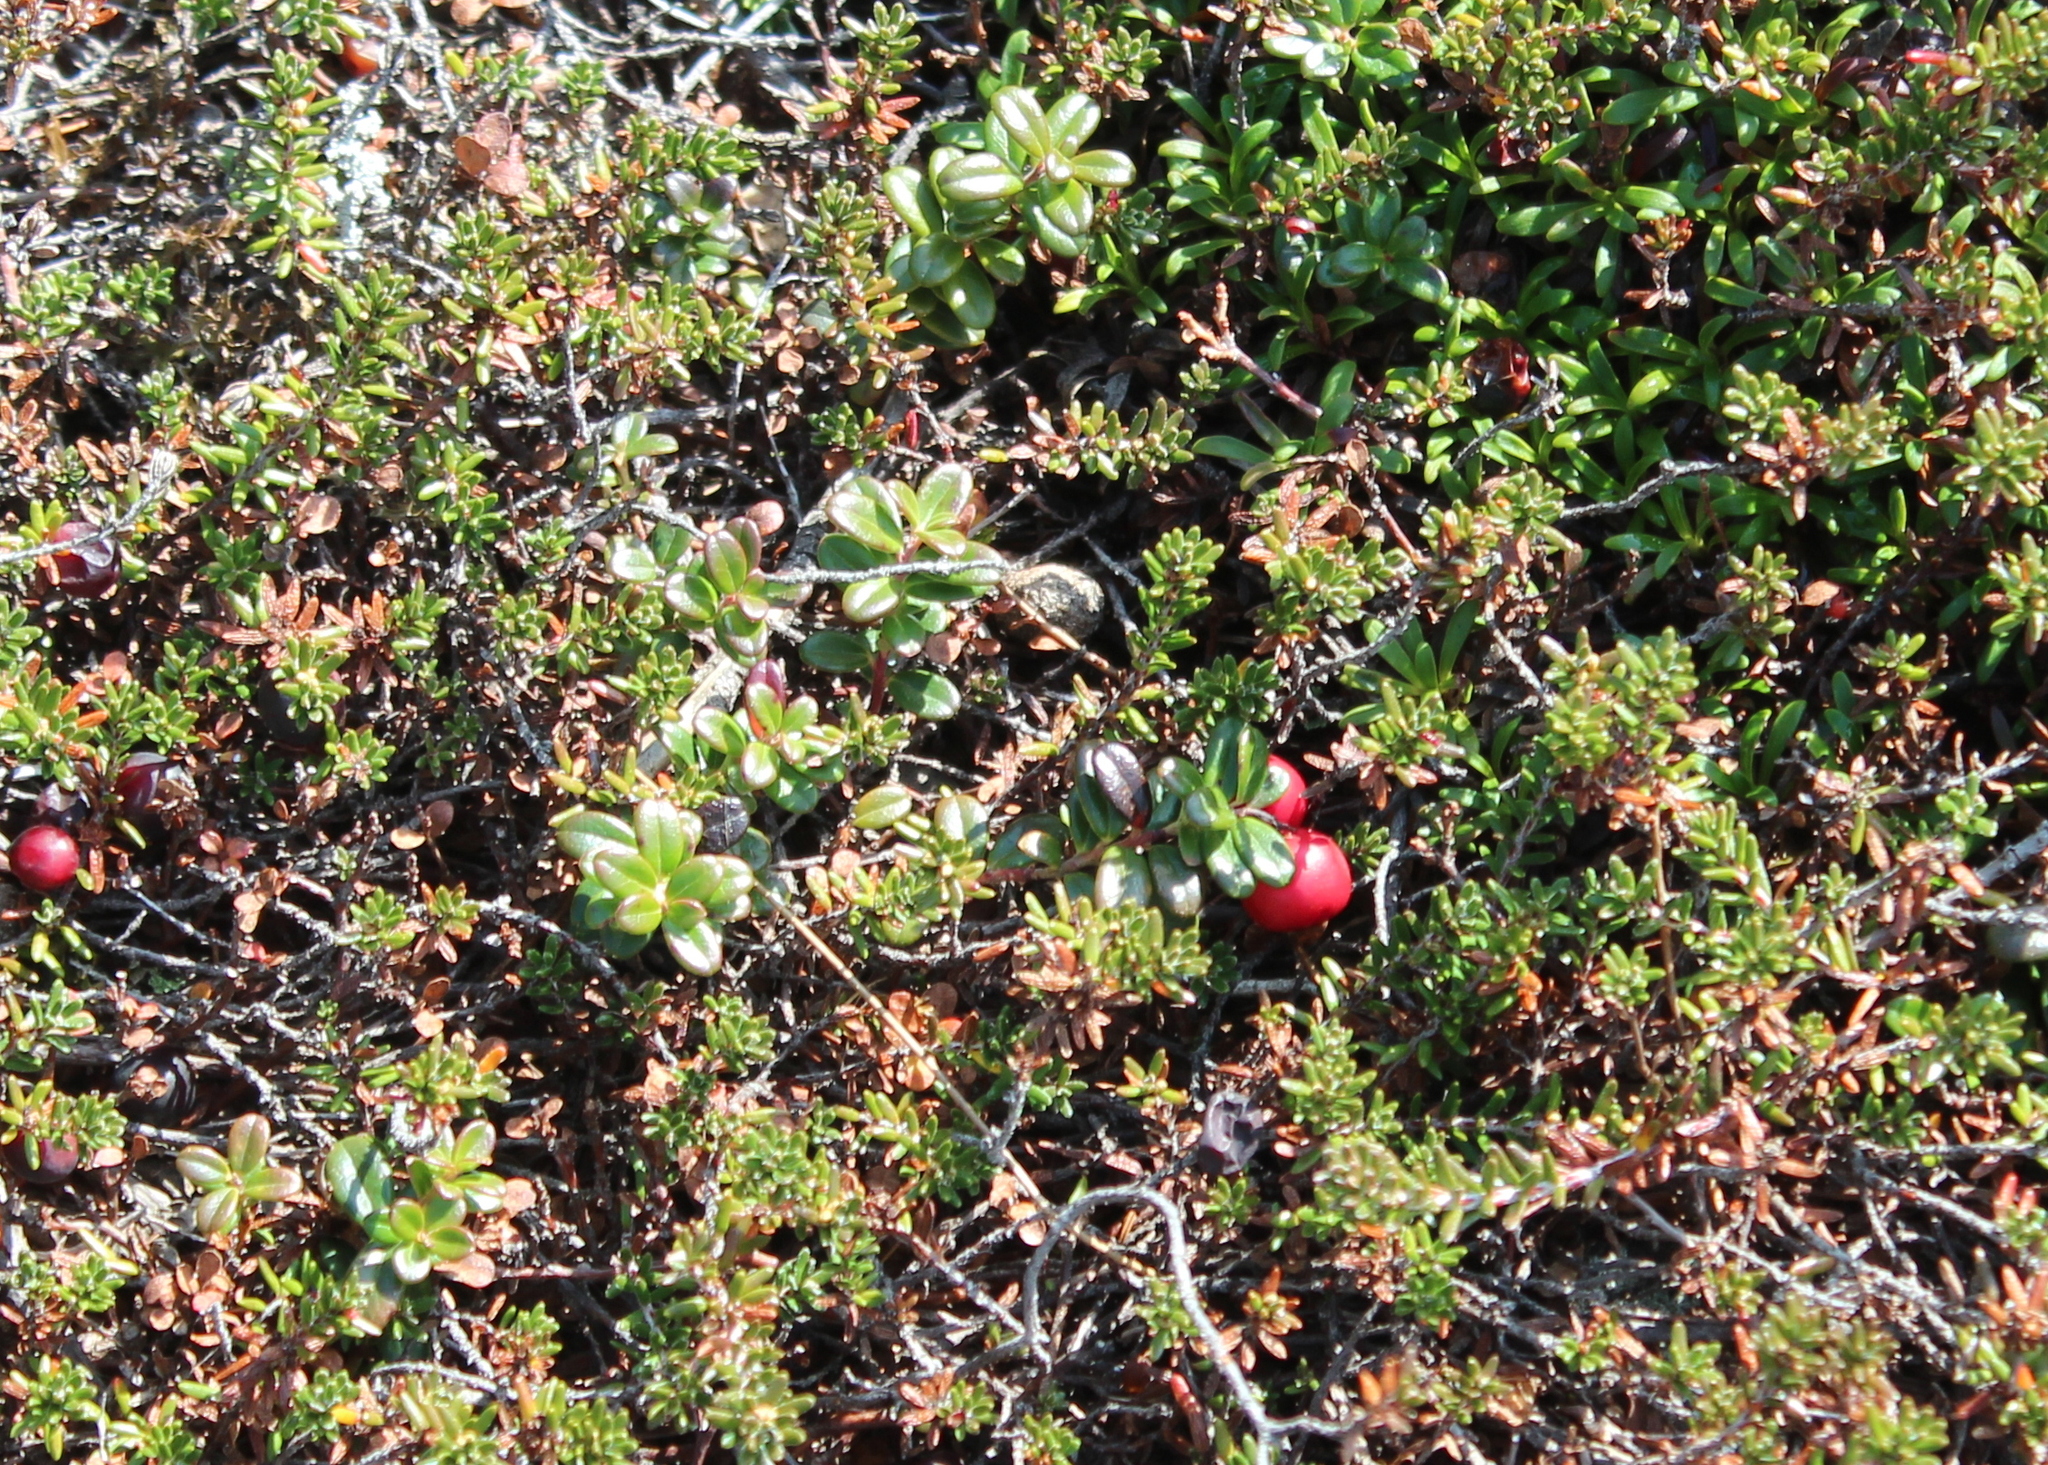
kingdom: Plantae
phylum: Tracheophyta
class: Magnoliopsida
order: Ericales
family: Ericaceae
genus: Vaccinium
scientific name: Vaccinium vitis-idaea
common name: Cowberry
